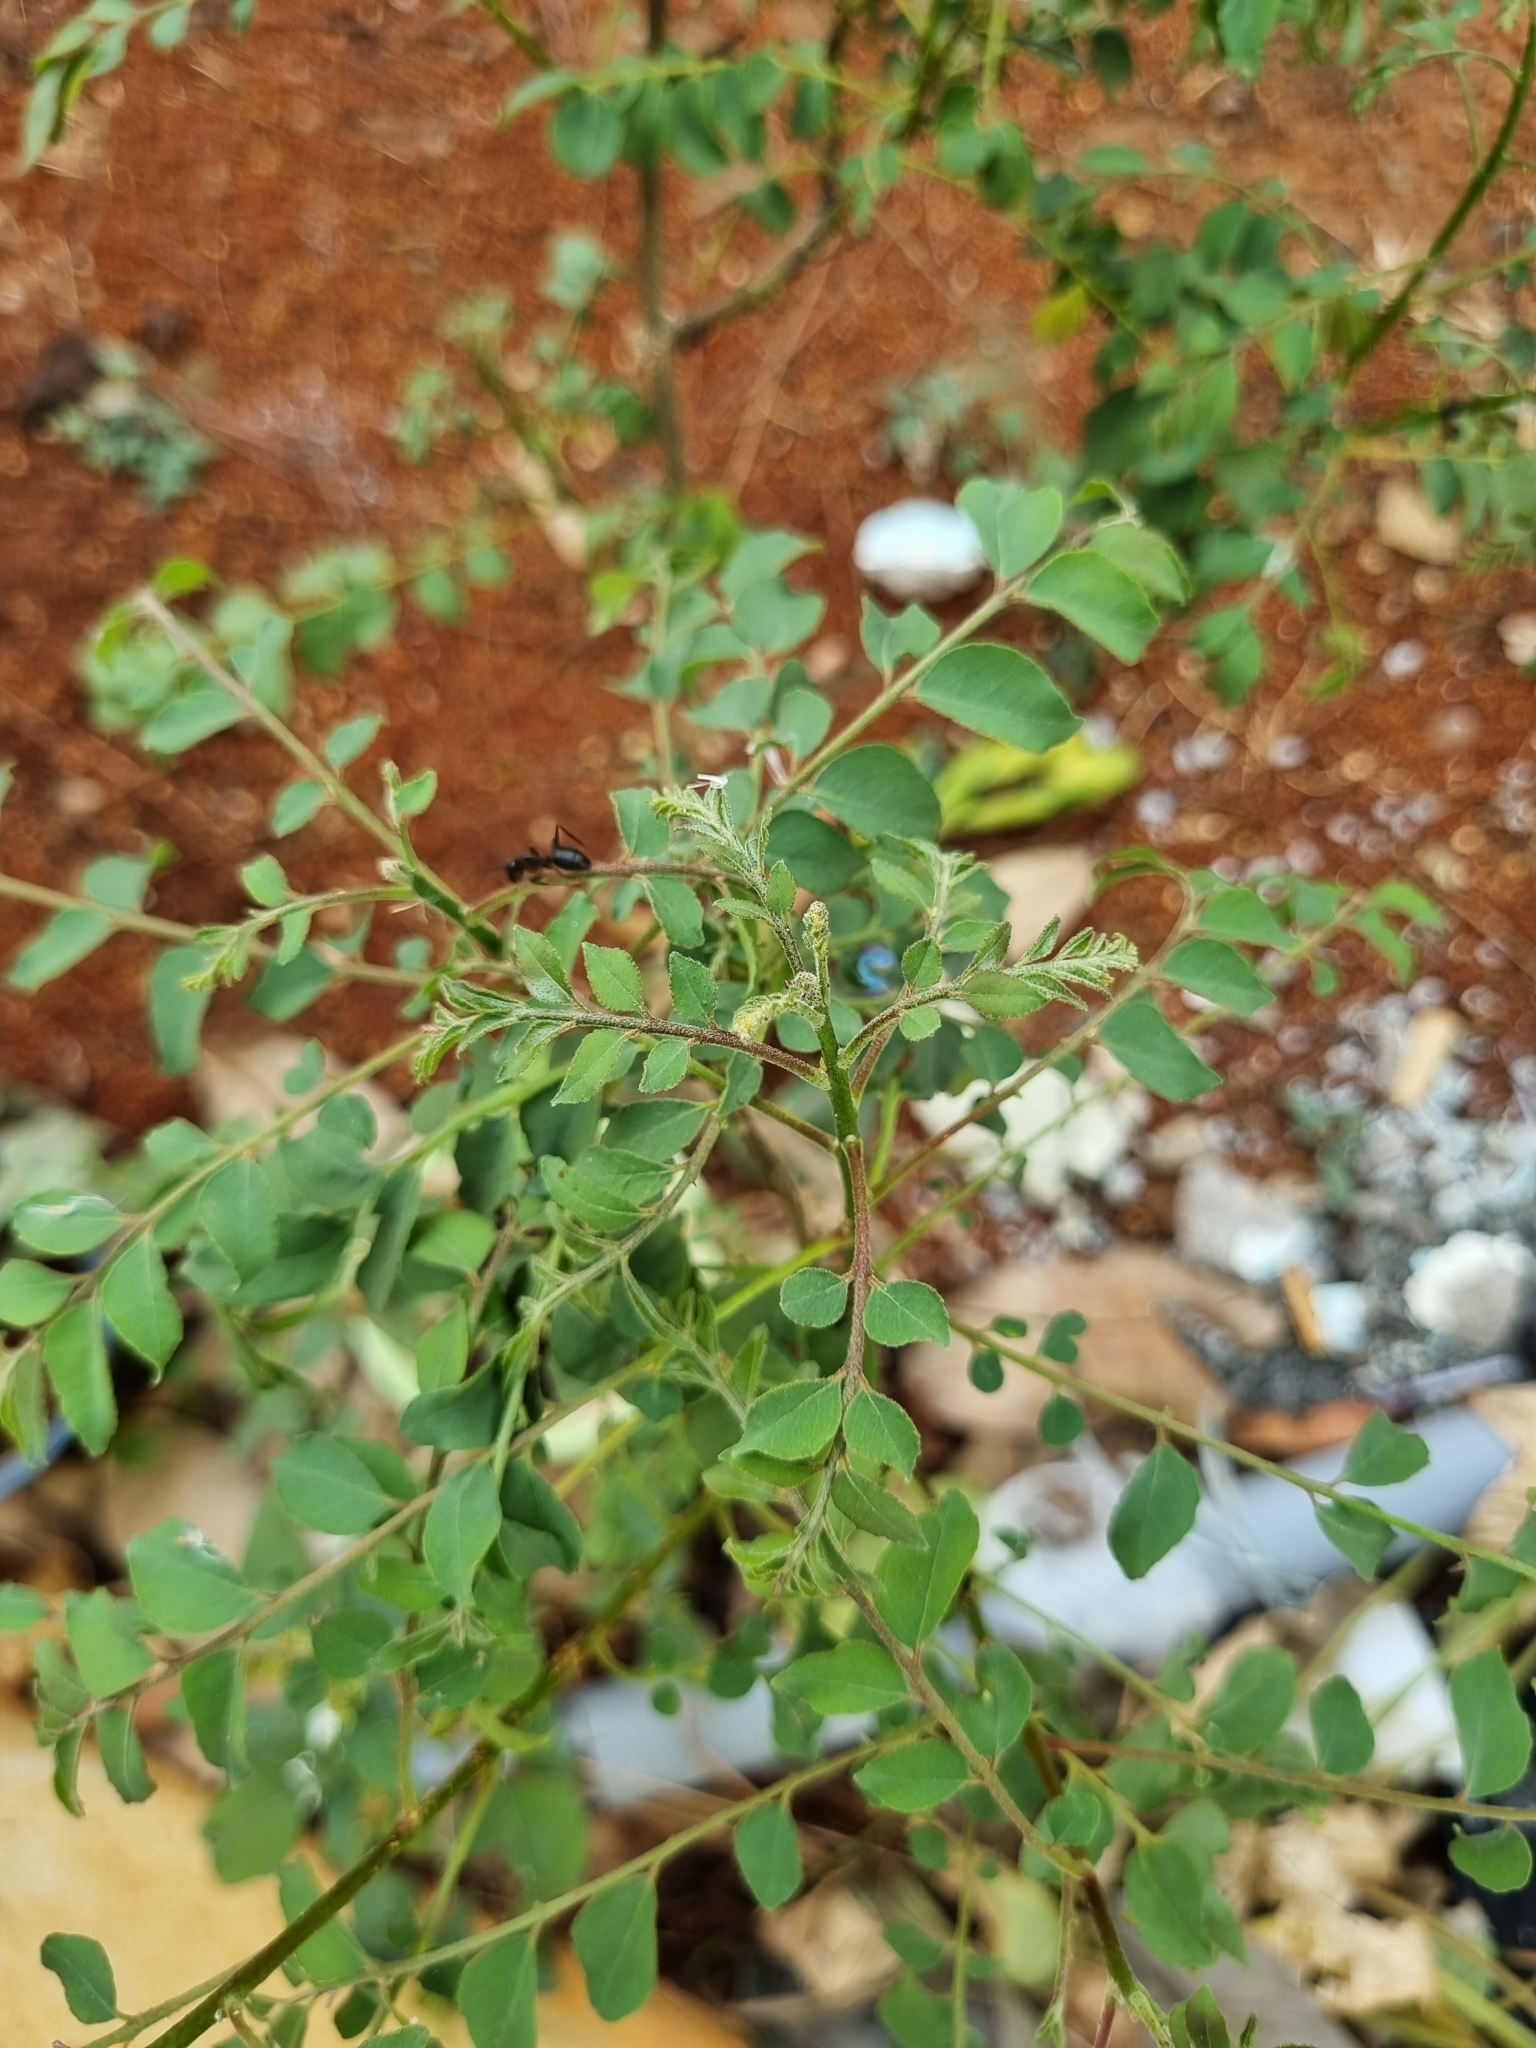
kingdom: Plantae
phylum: Tracheophyta
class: Magnoliopsida
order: Sapindales
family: Rutaceae
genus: Murraya
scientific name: Murraya koenigii
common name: Curry-plant
